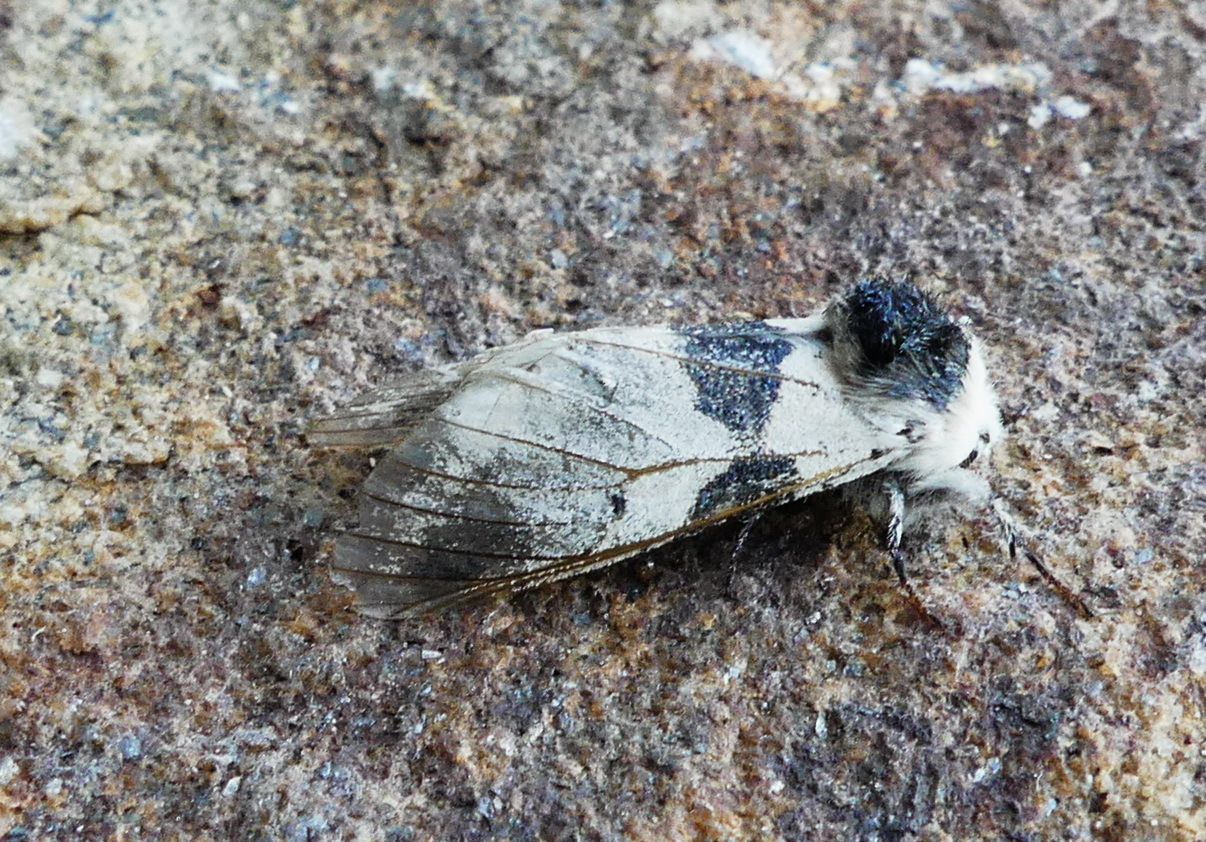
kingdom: Animalia
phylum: Arthropoda
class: Insecta
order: Lepidoptera
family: Notodontidae
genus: Furcula
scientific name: Furcula modesta
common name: Modest furcula moth
